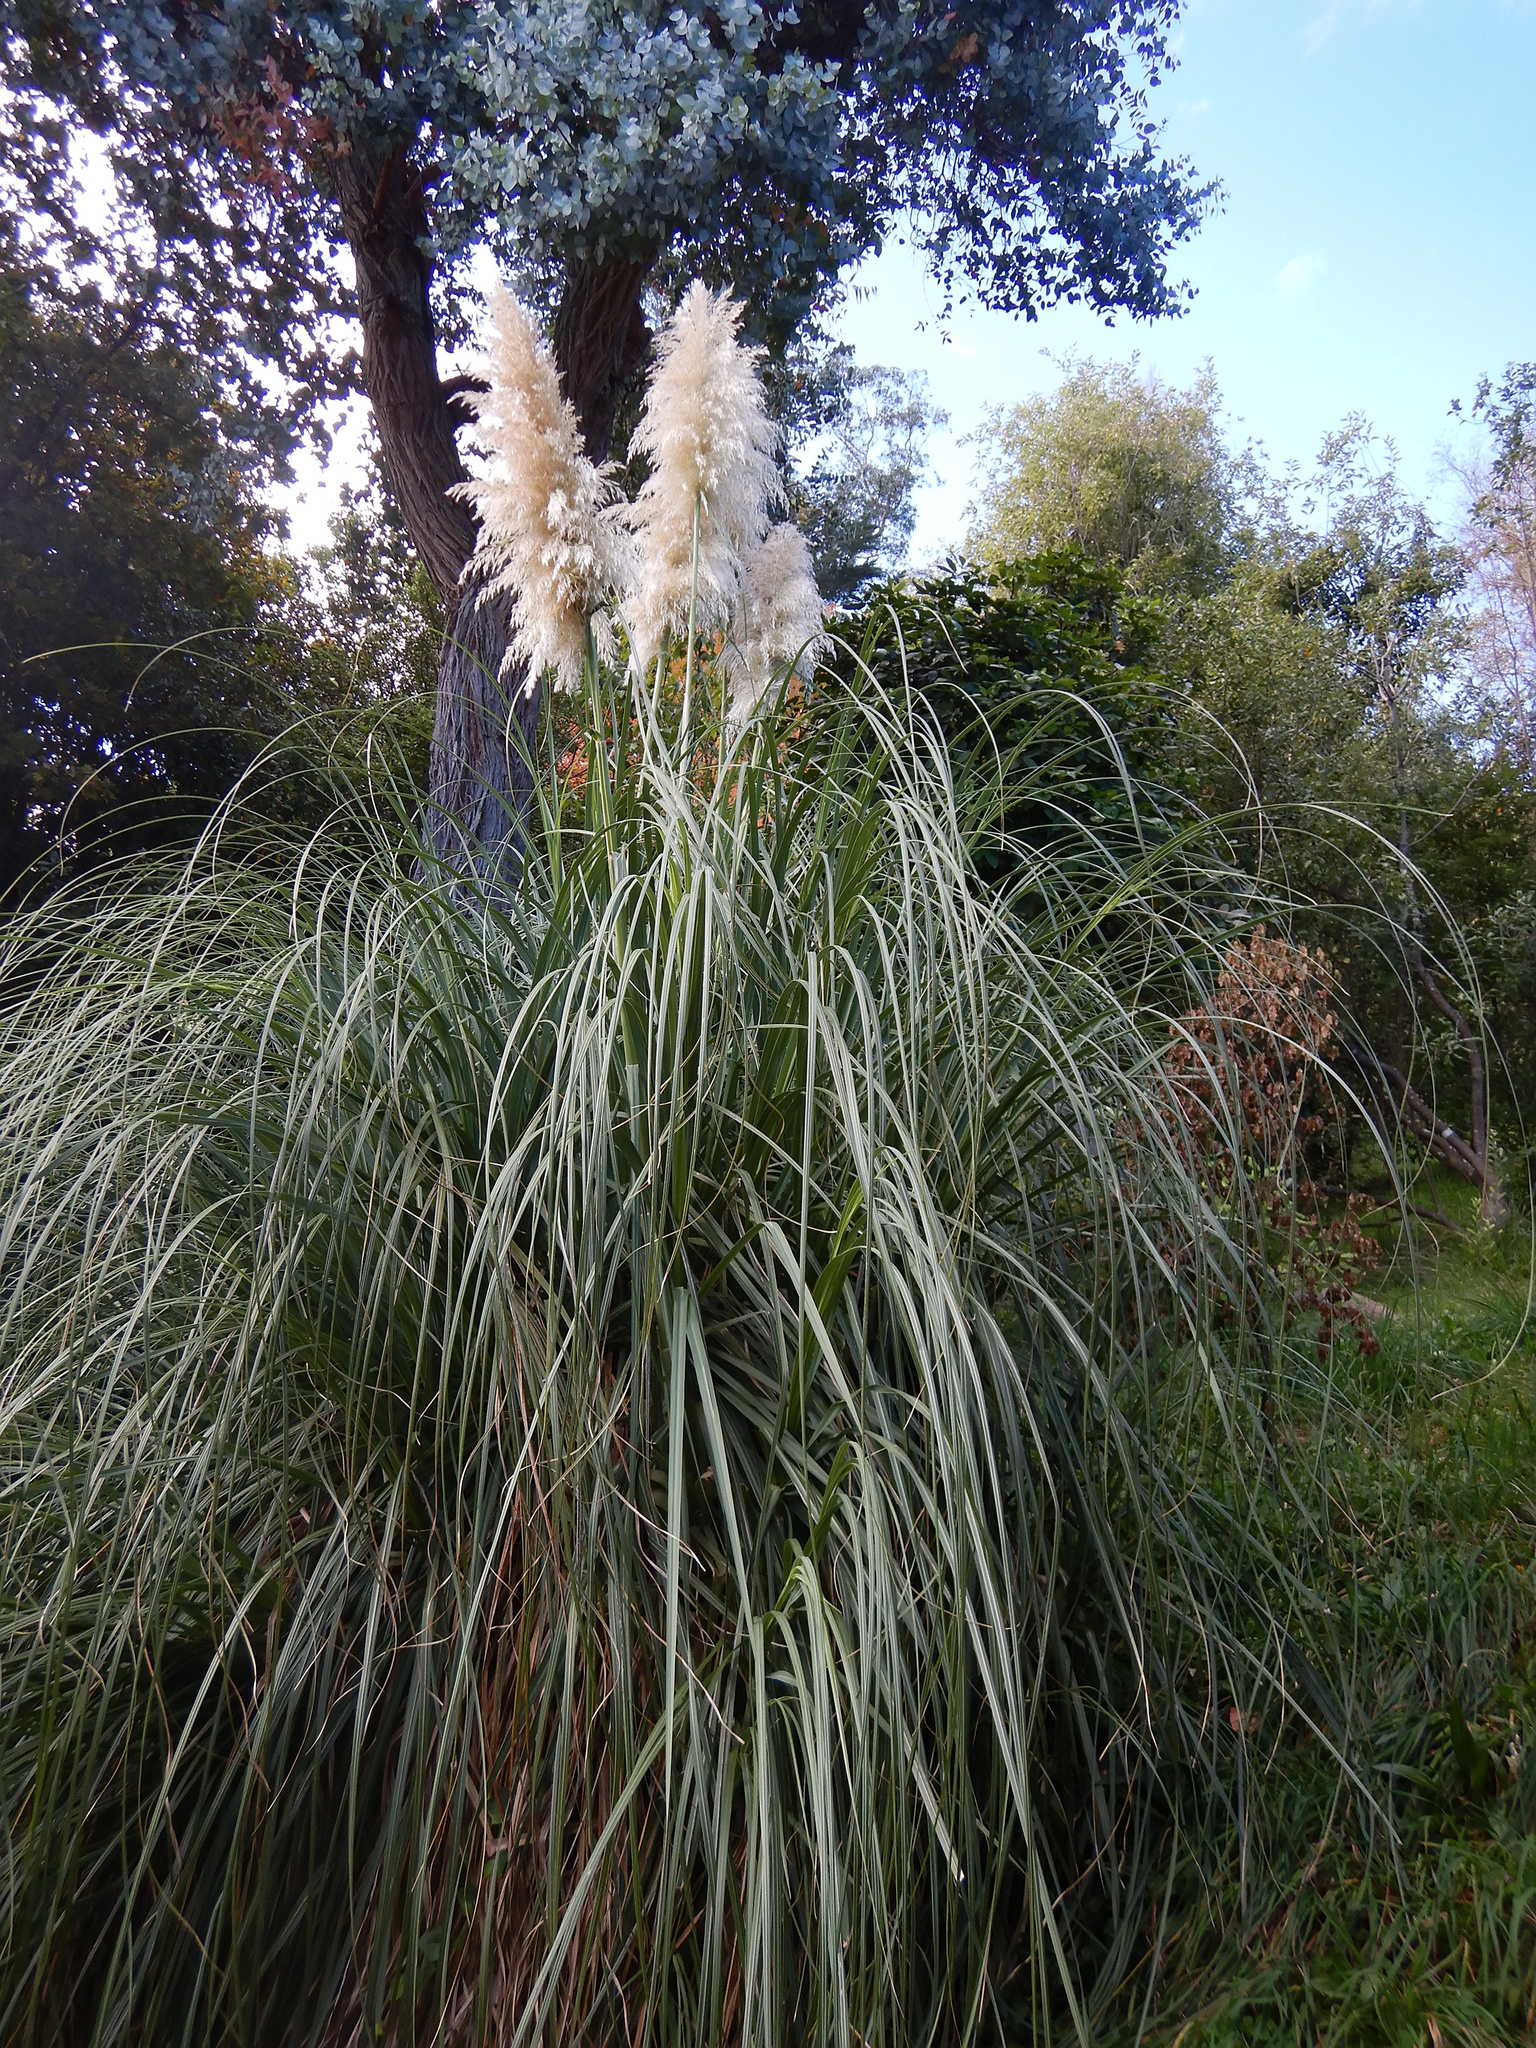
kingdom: Plantae
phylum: Tracheophyta
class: Liliopsida
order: Poales
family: Poaceae
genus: Cortaderia
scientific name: Cortaderia selloana
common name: Uruguayan pampas grass
